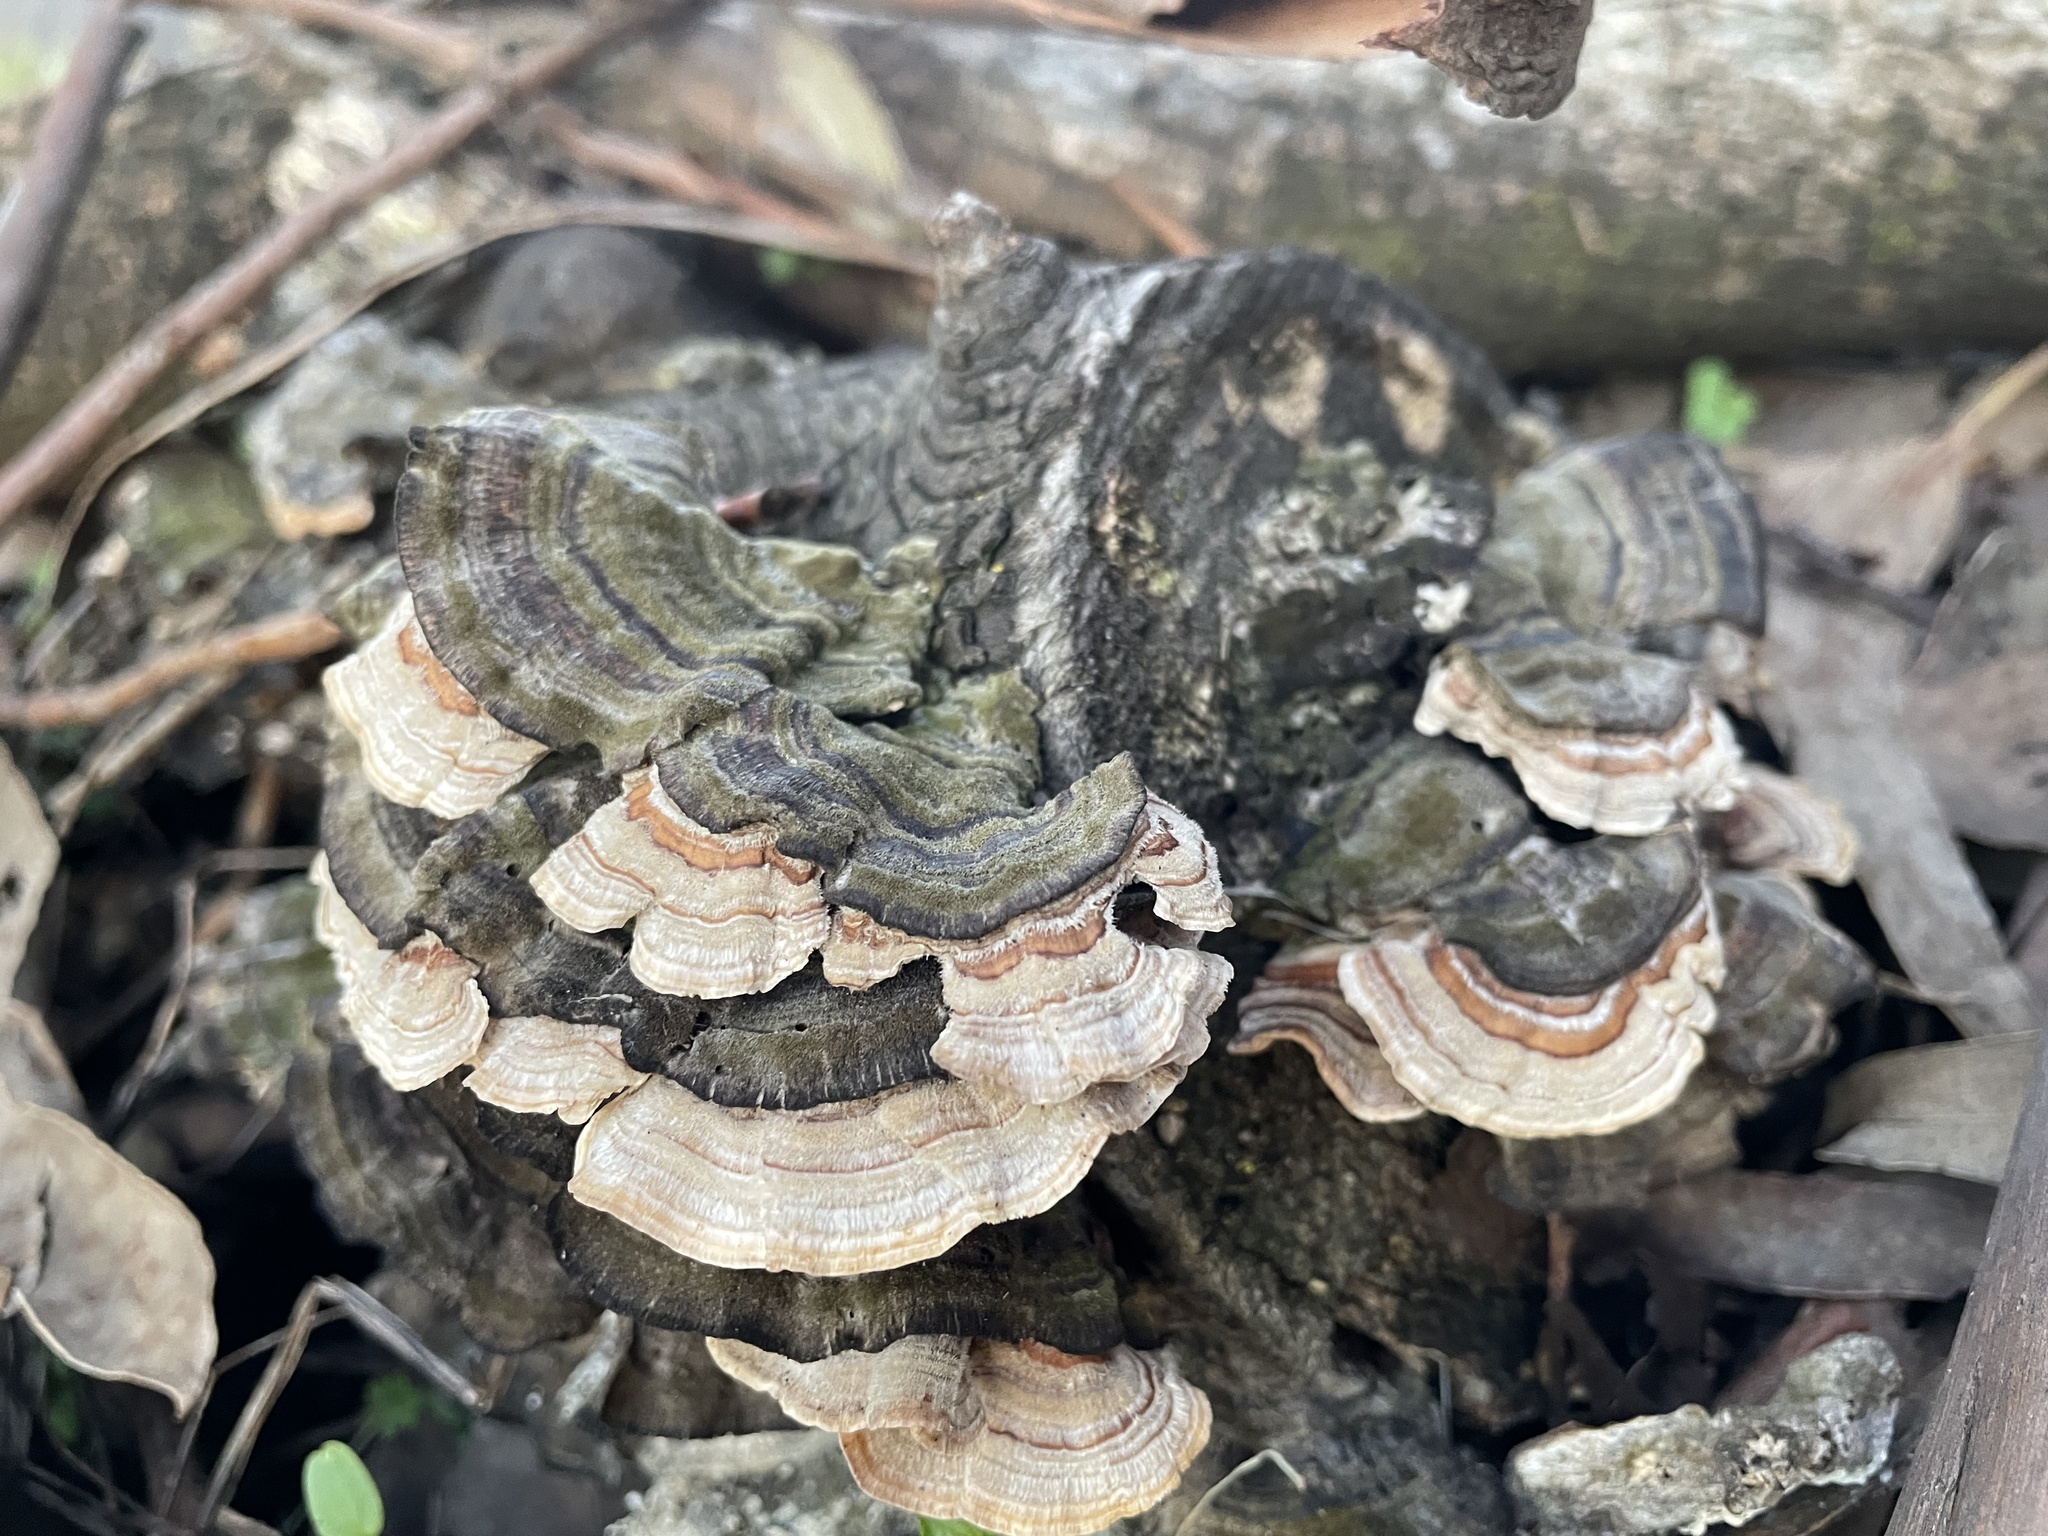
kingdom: Fungi
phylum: Basidiomycota
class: Agaricomycetes
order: Russulales
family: Stereaceae
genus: Stereum
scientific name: Stereum hirsutum
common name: Hairy curtain crust
